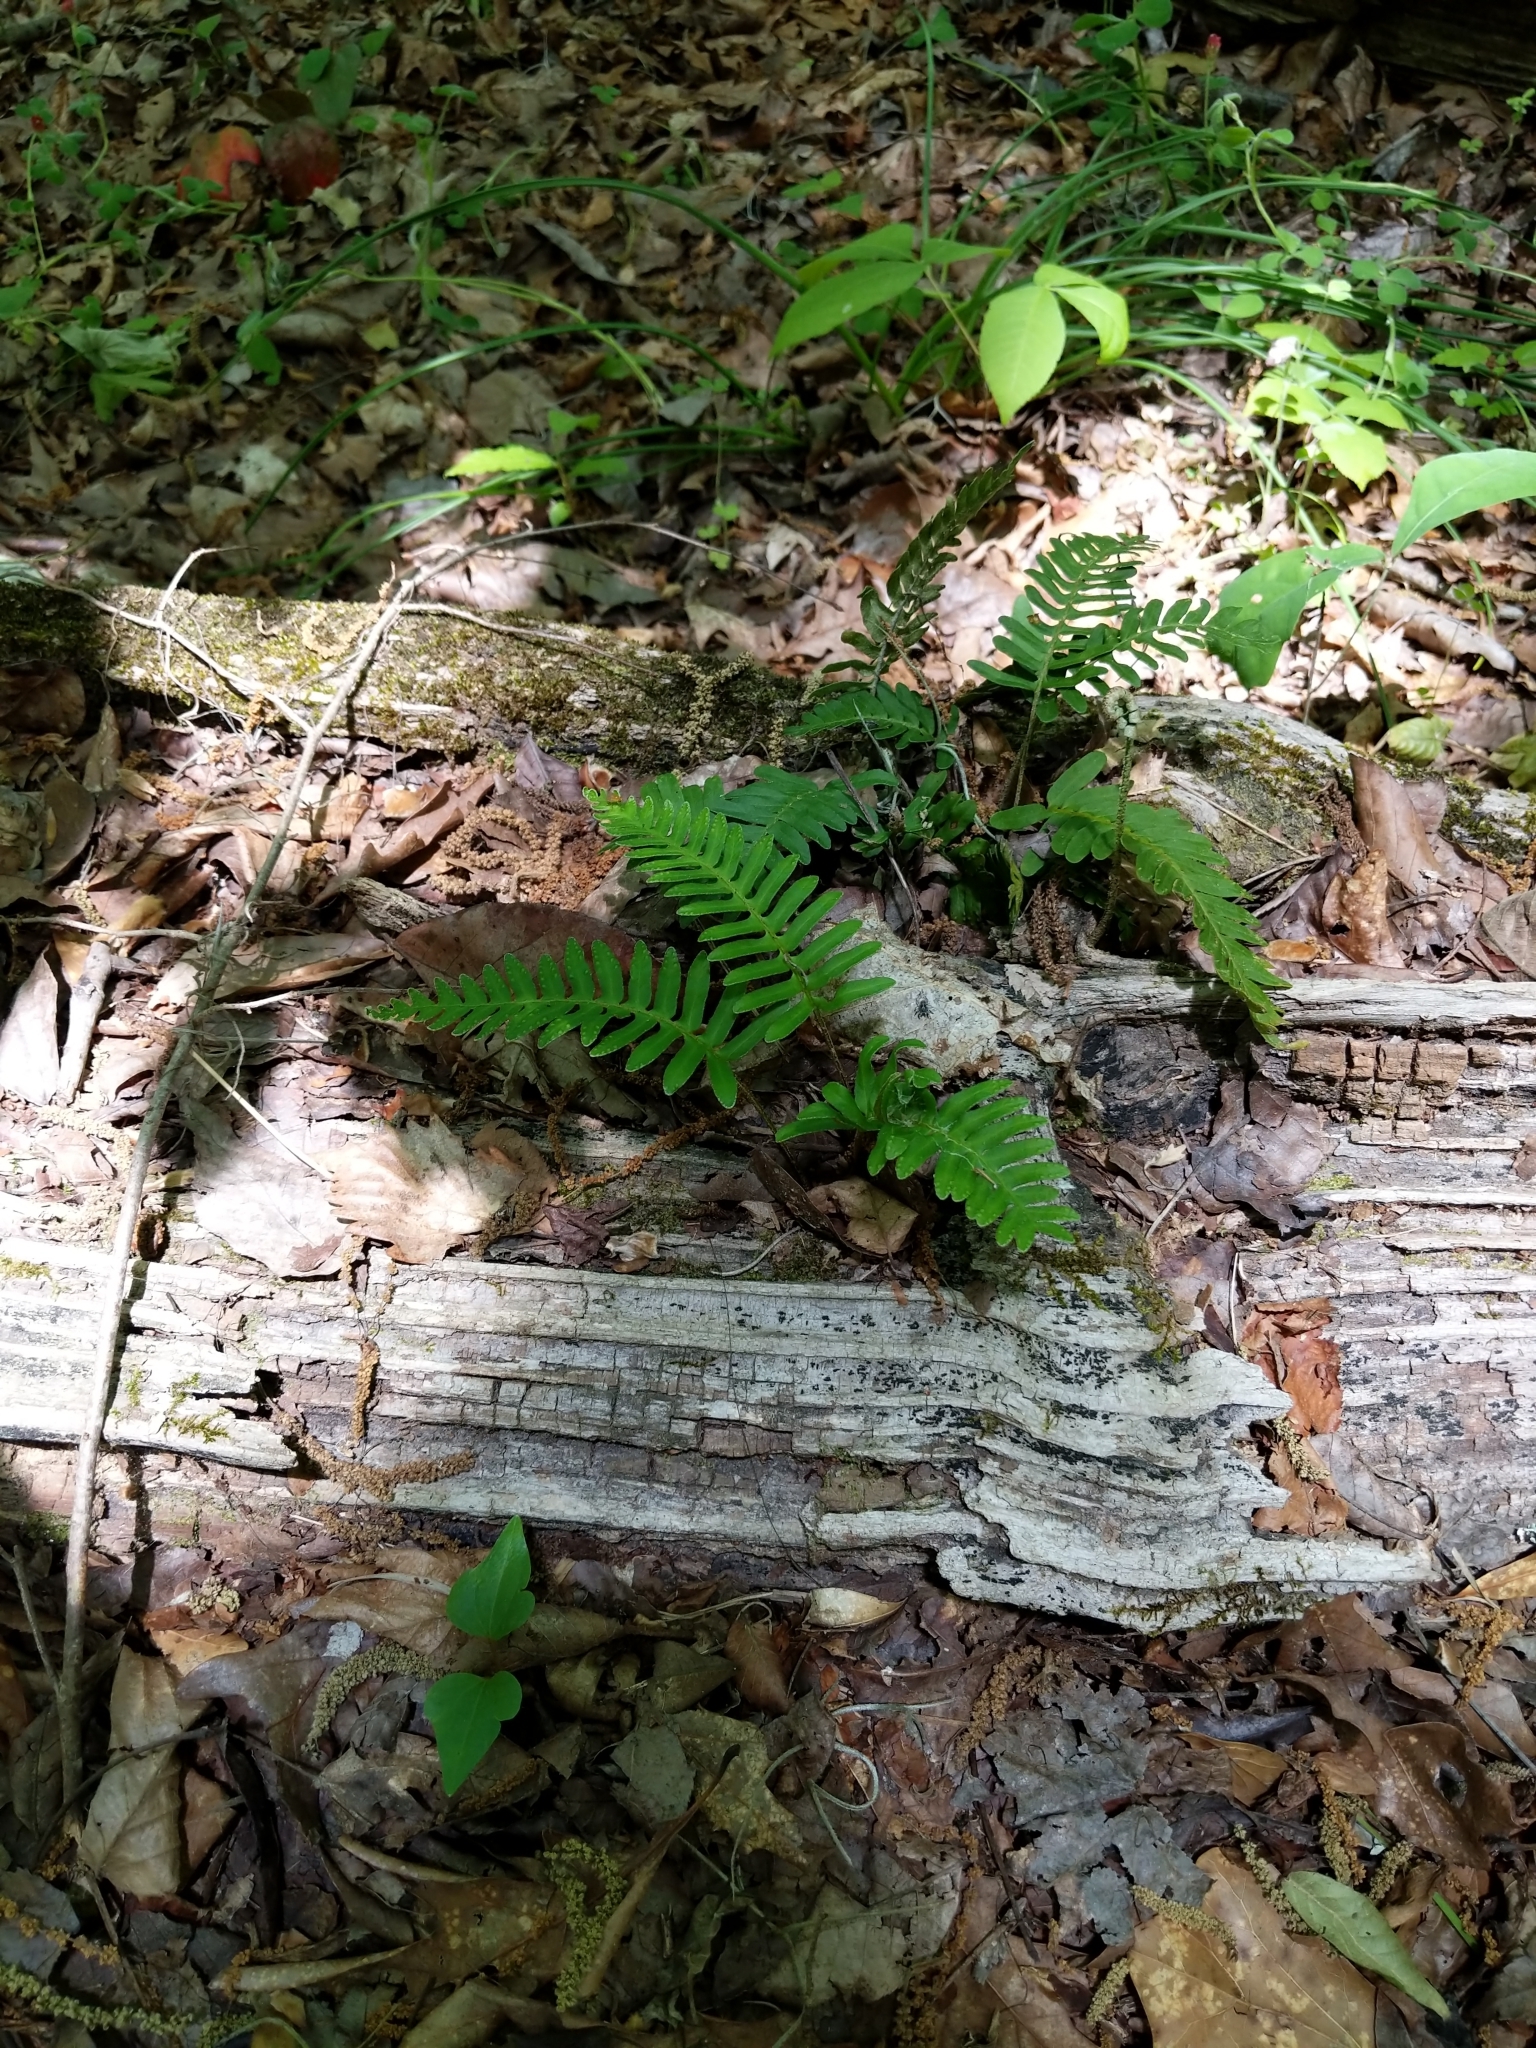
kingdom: Plantae
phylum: Tracheophyta
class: Polypodiopsida
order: Polypodiales
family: Polypodiaceae
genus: Pleopeltis
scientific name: Pleopeltis michauxiana
